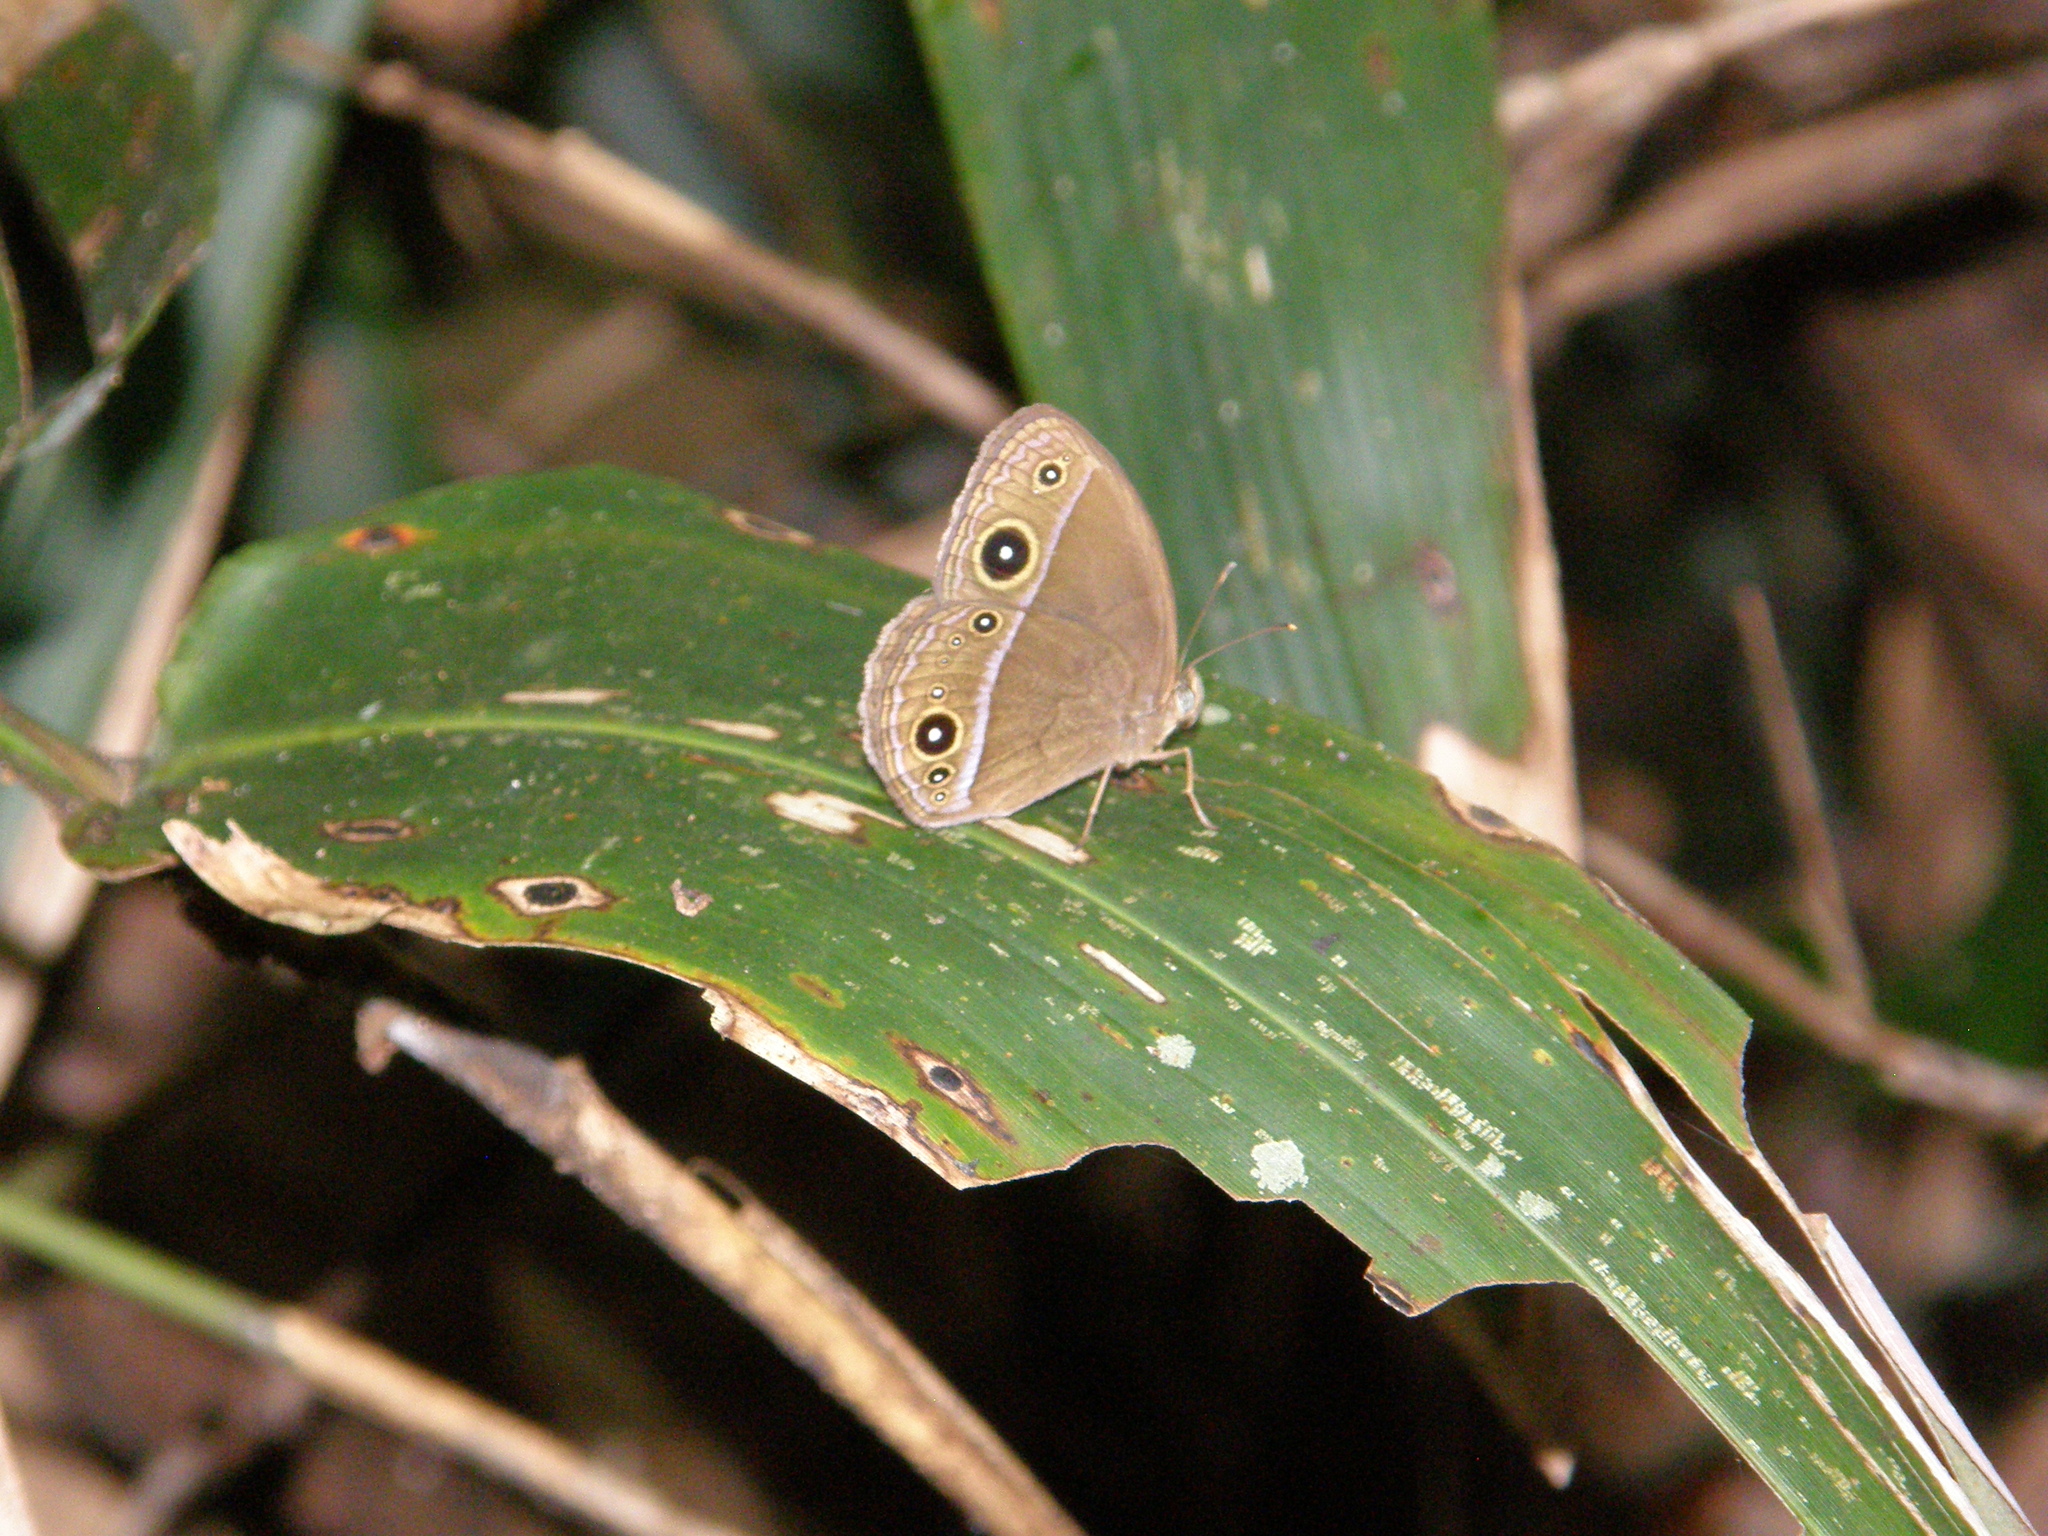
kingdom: Animalia
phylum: Arthropoda
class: Insecta
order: Lepidoptera
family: Nymphalidae
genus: Mycalesis
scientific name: Mycalesis francisca
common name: Lilacine bushbrown
